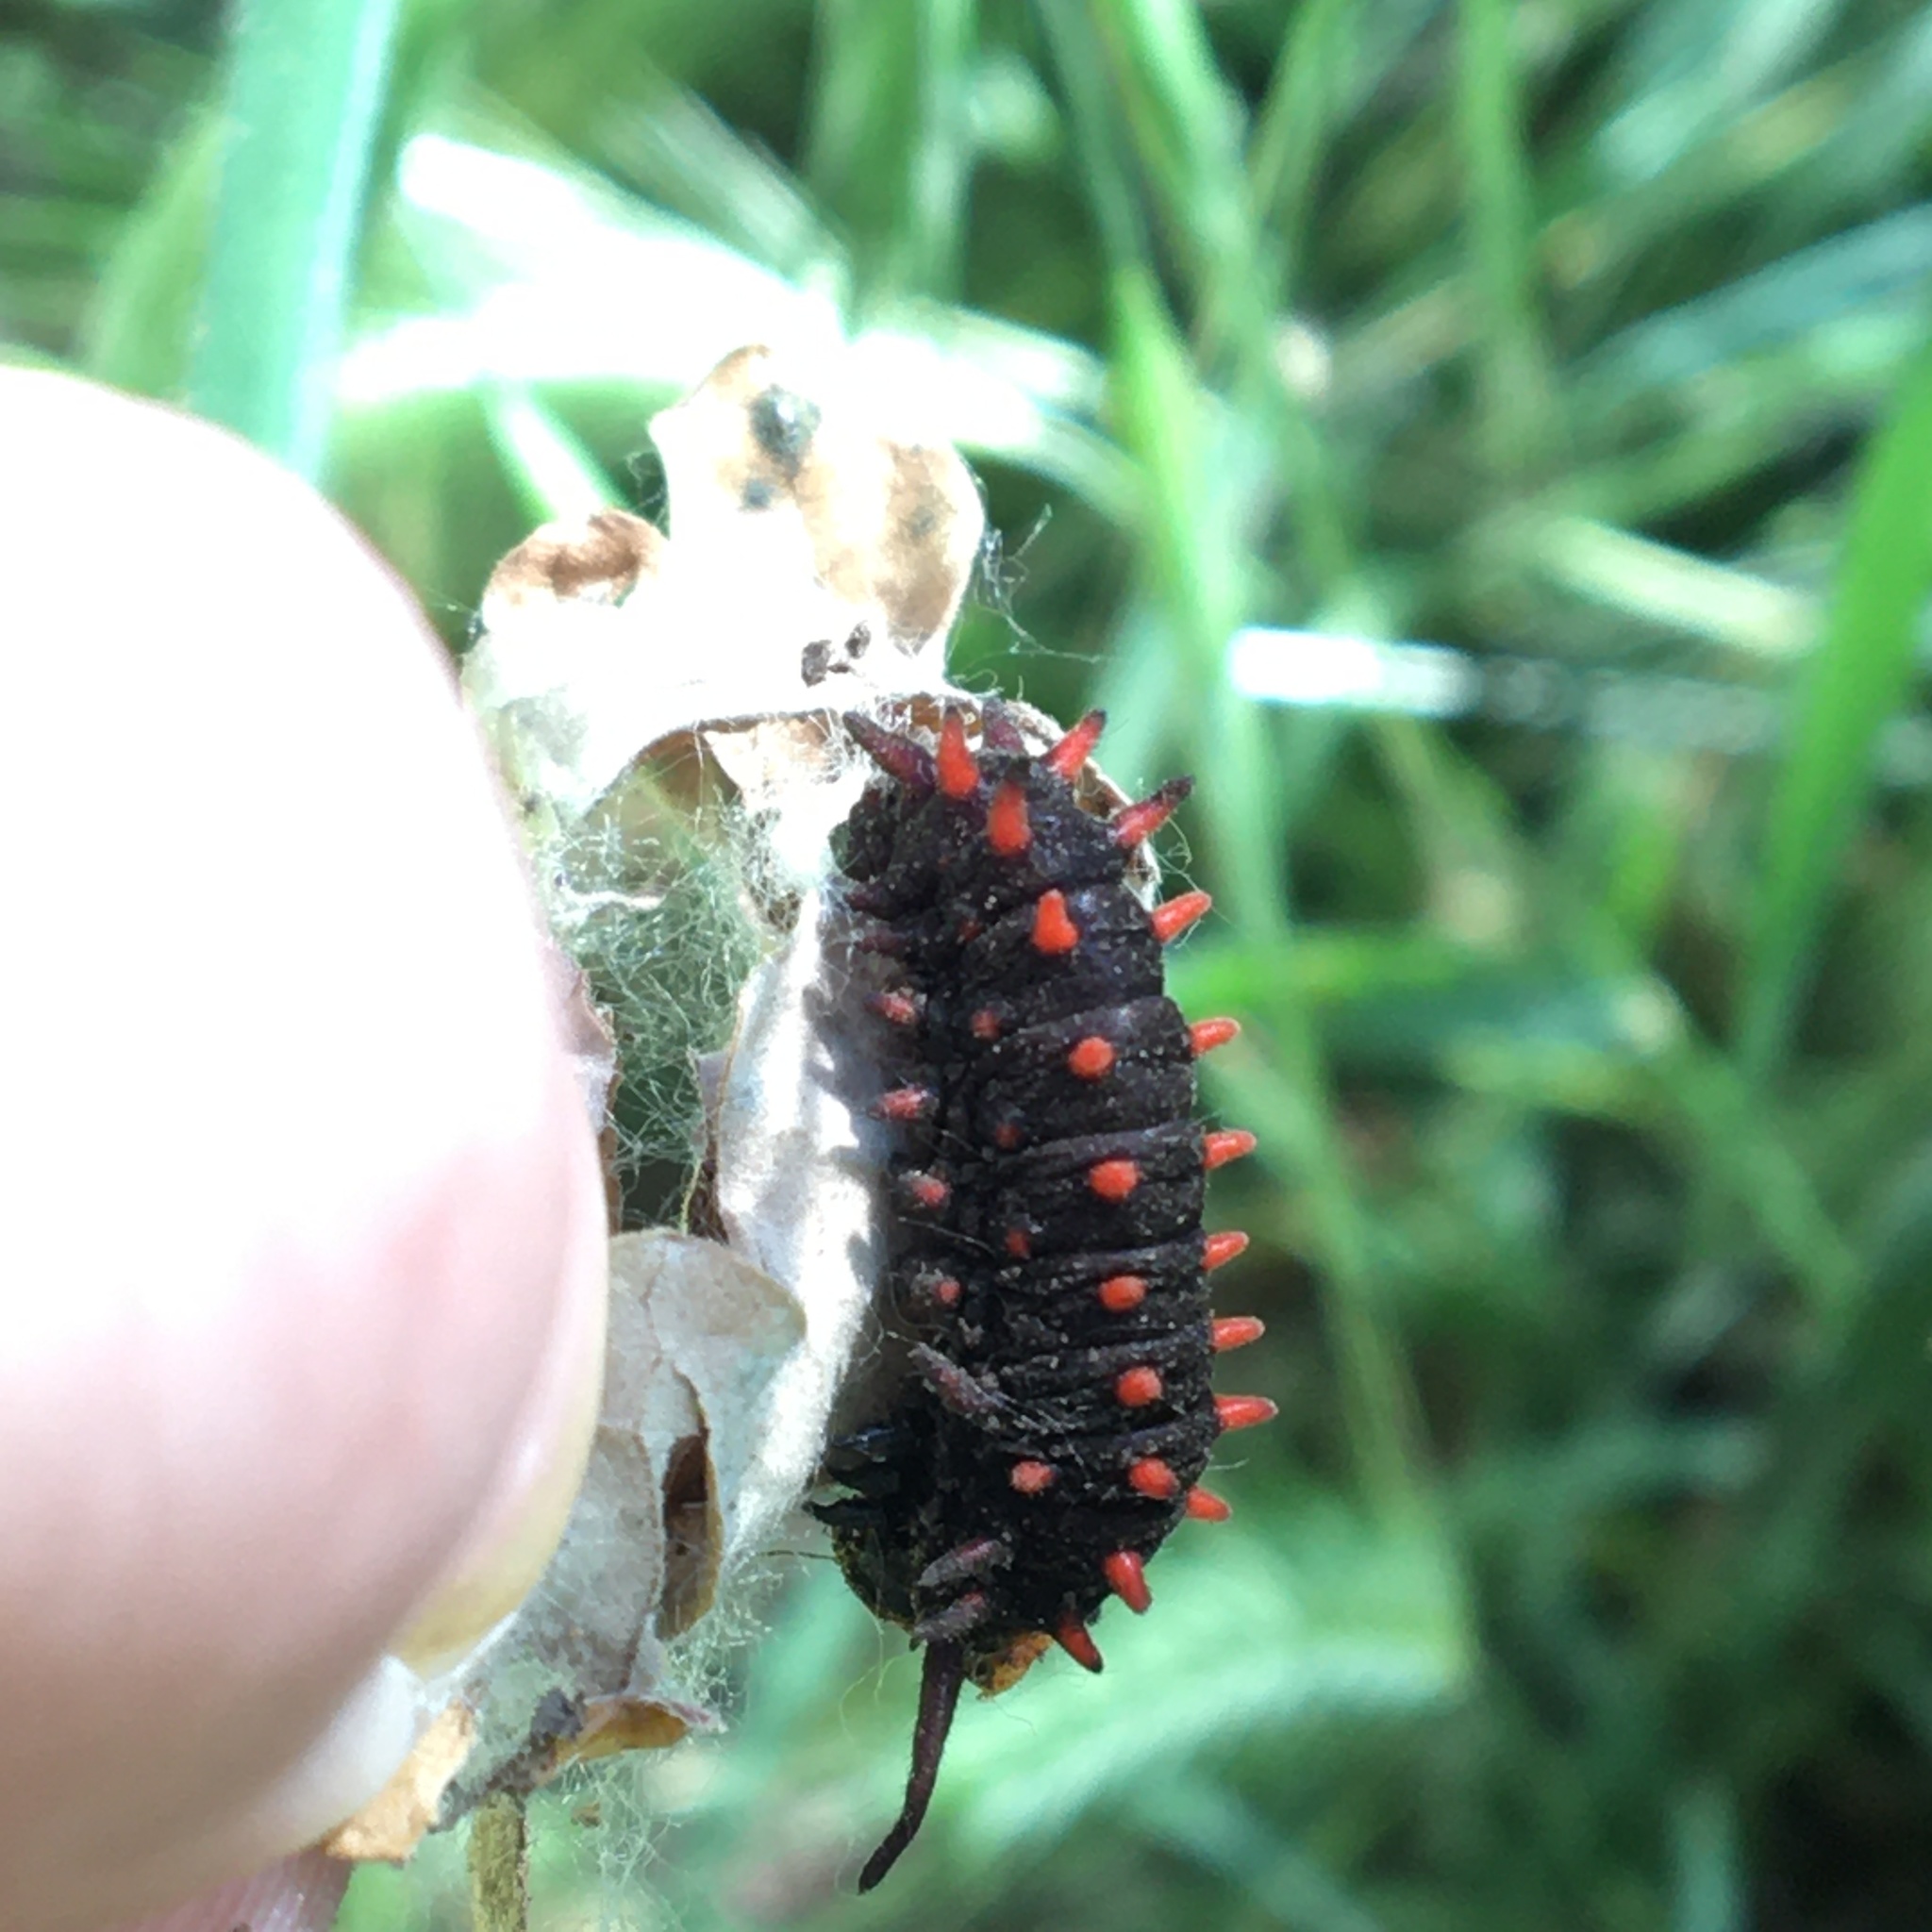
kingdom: Animalia
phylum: Arthropoda
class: Insecta
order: Lepidoptera
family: Papilionidae
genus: Battus
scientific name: Battus philenor
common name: Pipevine swallowtail
